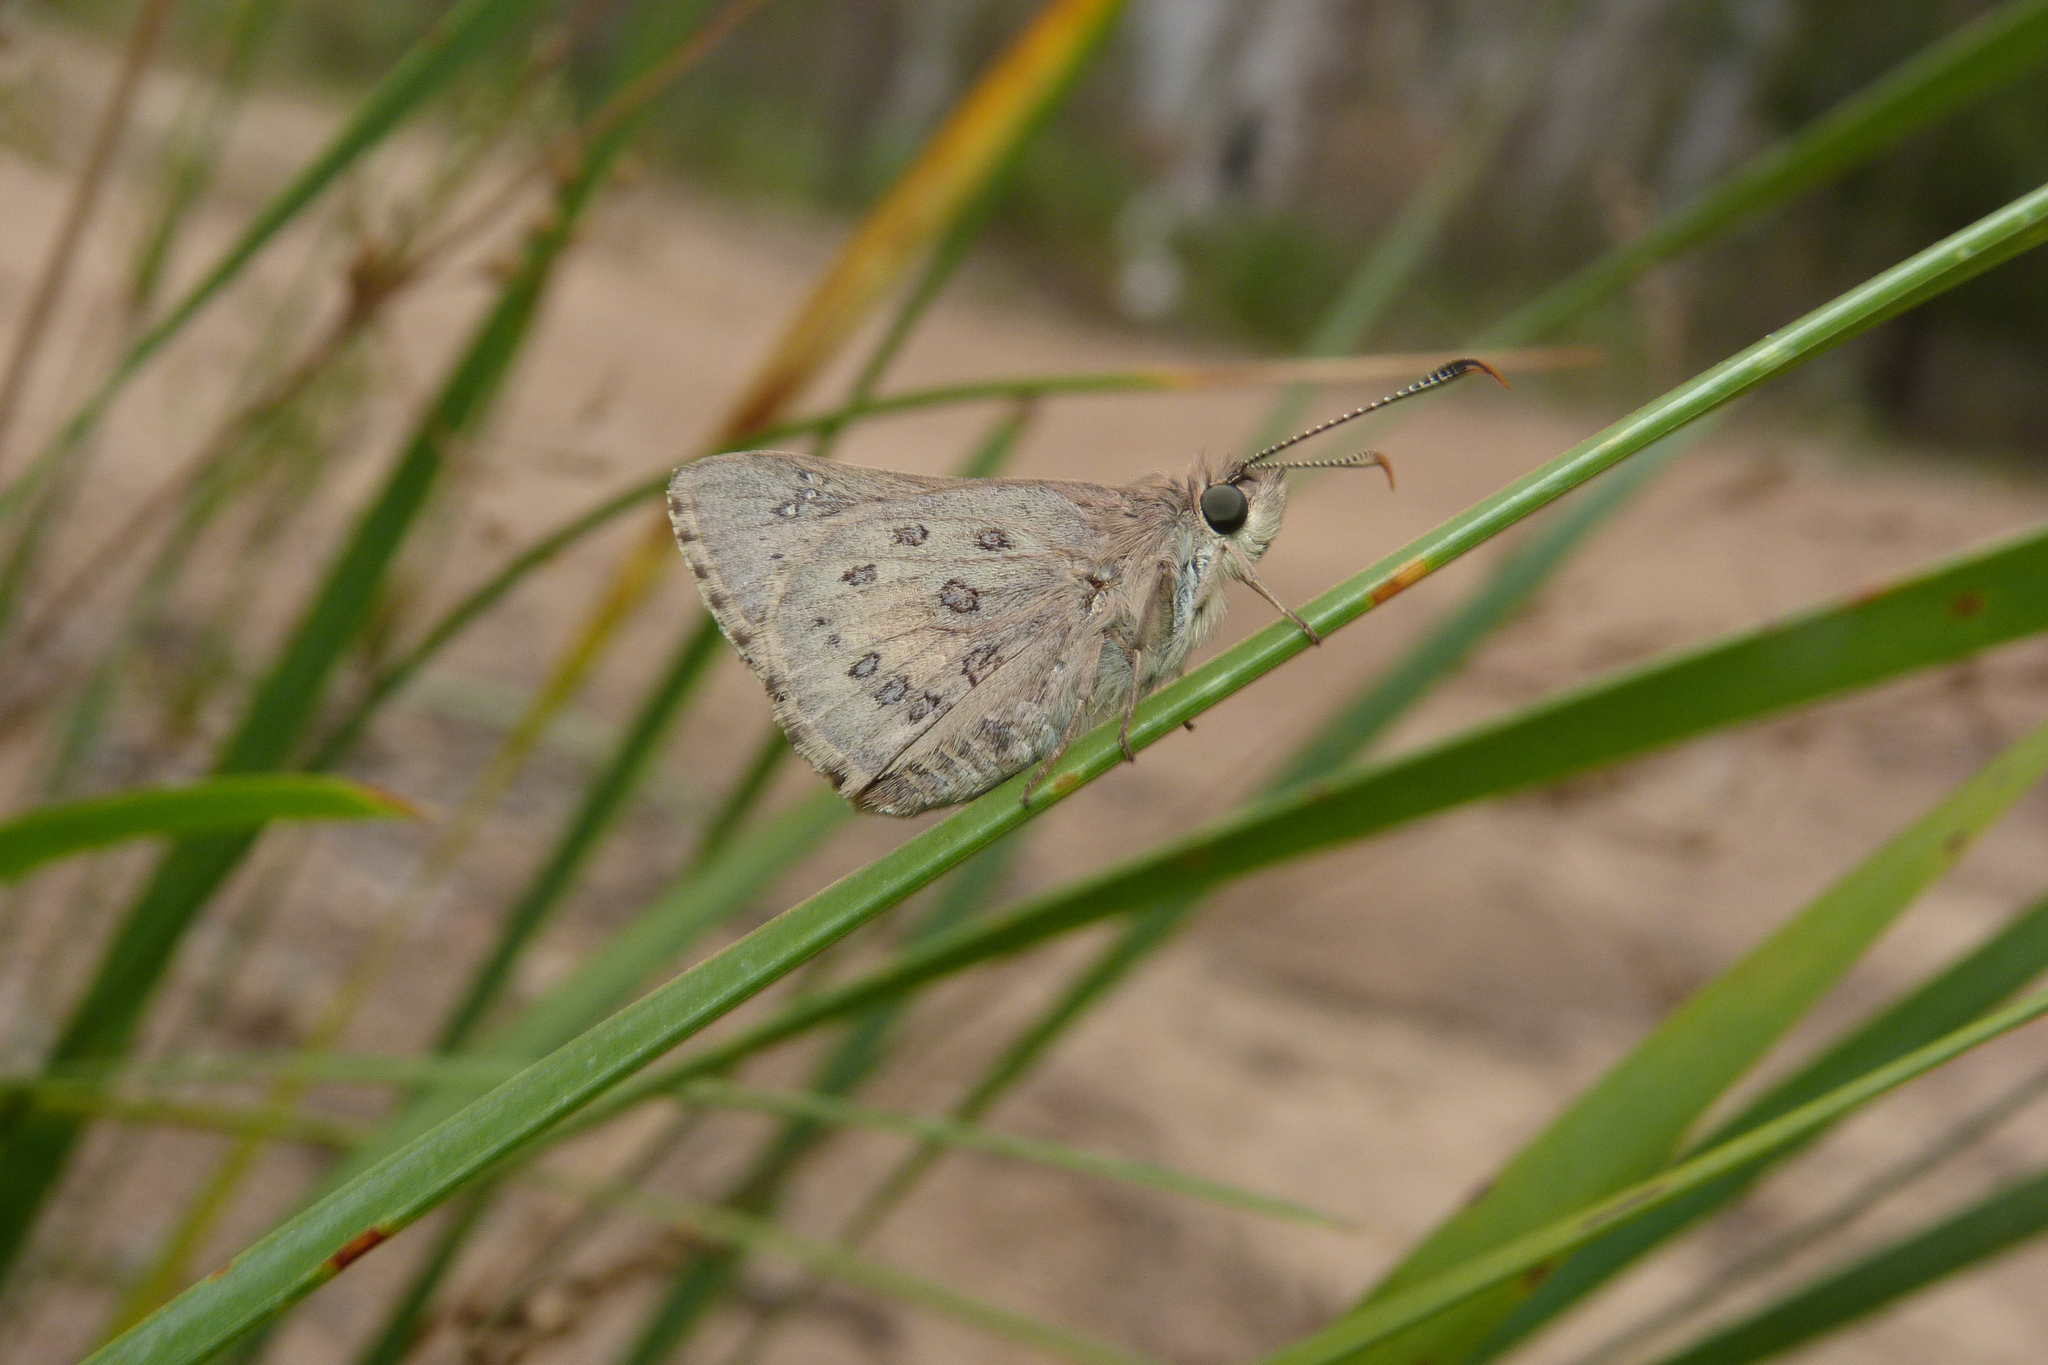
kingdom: Animalia
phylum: Arthropoda
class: Insecta
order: Lepidoptera
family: Hesperiidae
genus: Trapezites
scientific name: Trapezites phigalia
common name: Heath ochre
